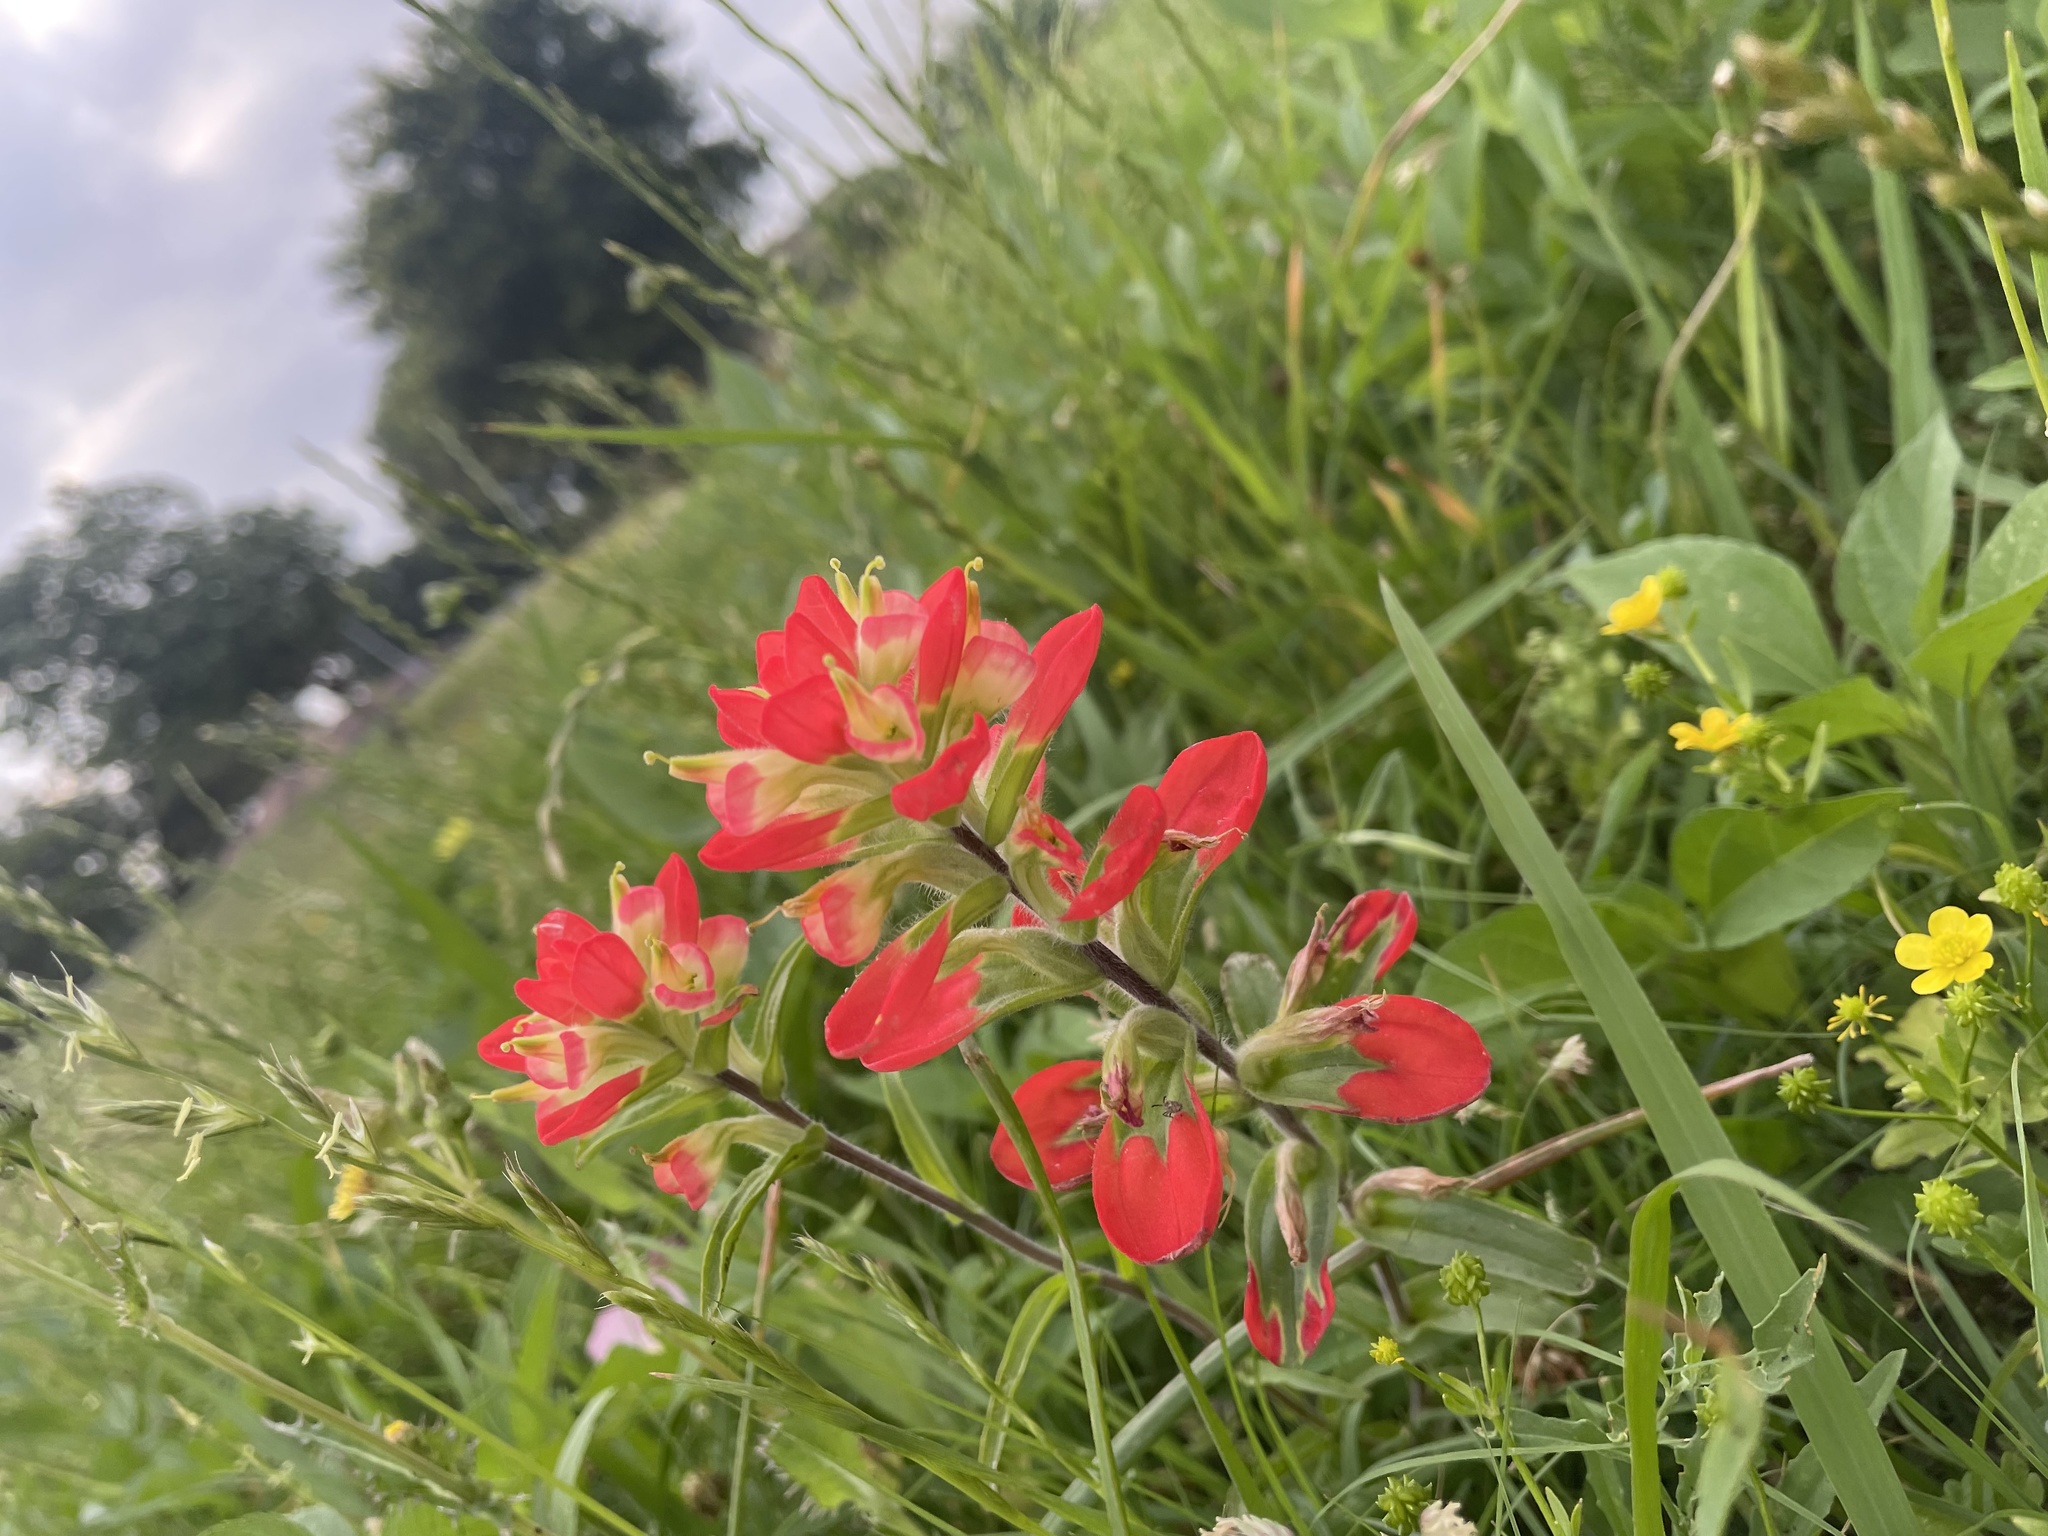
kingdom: Plantae
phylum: Tracheophyta
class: Magnoliopsida
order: Lamiales
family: Orobanchaceae
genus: Castilleja
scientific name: Castilleja indivisa
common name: Texas paintbrush
